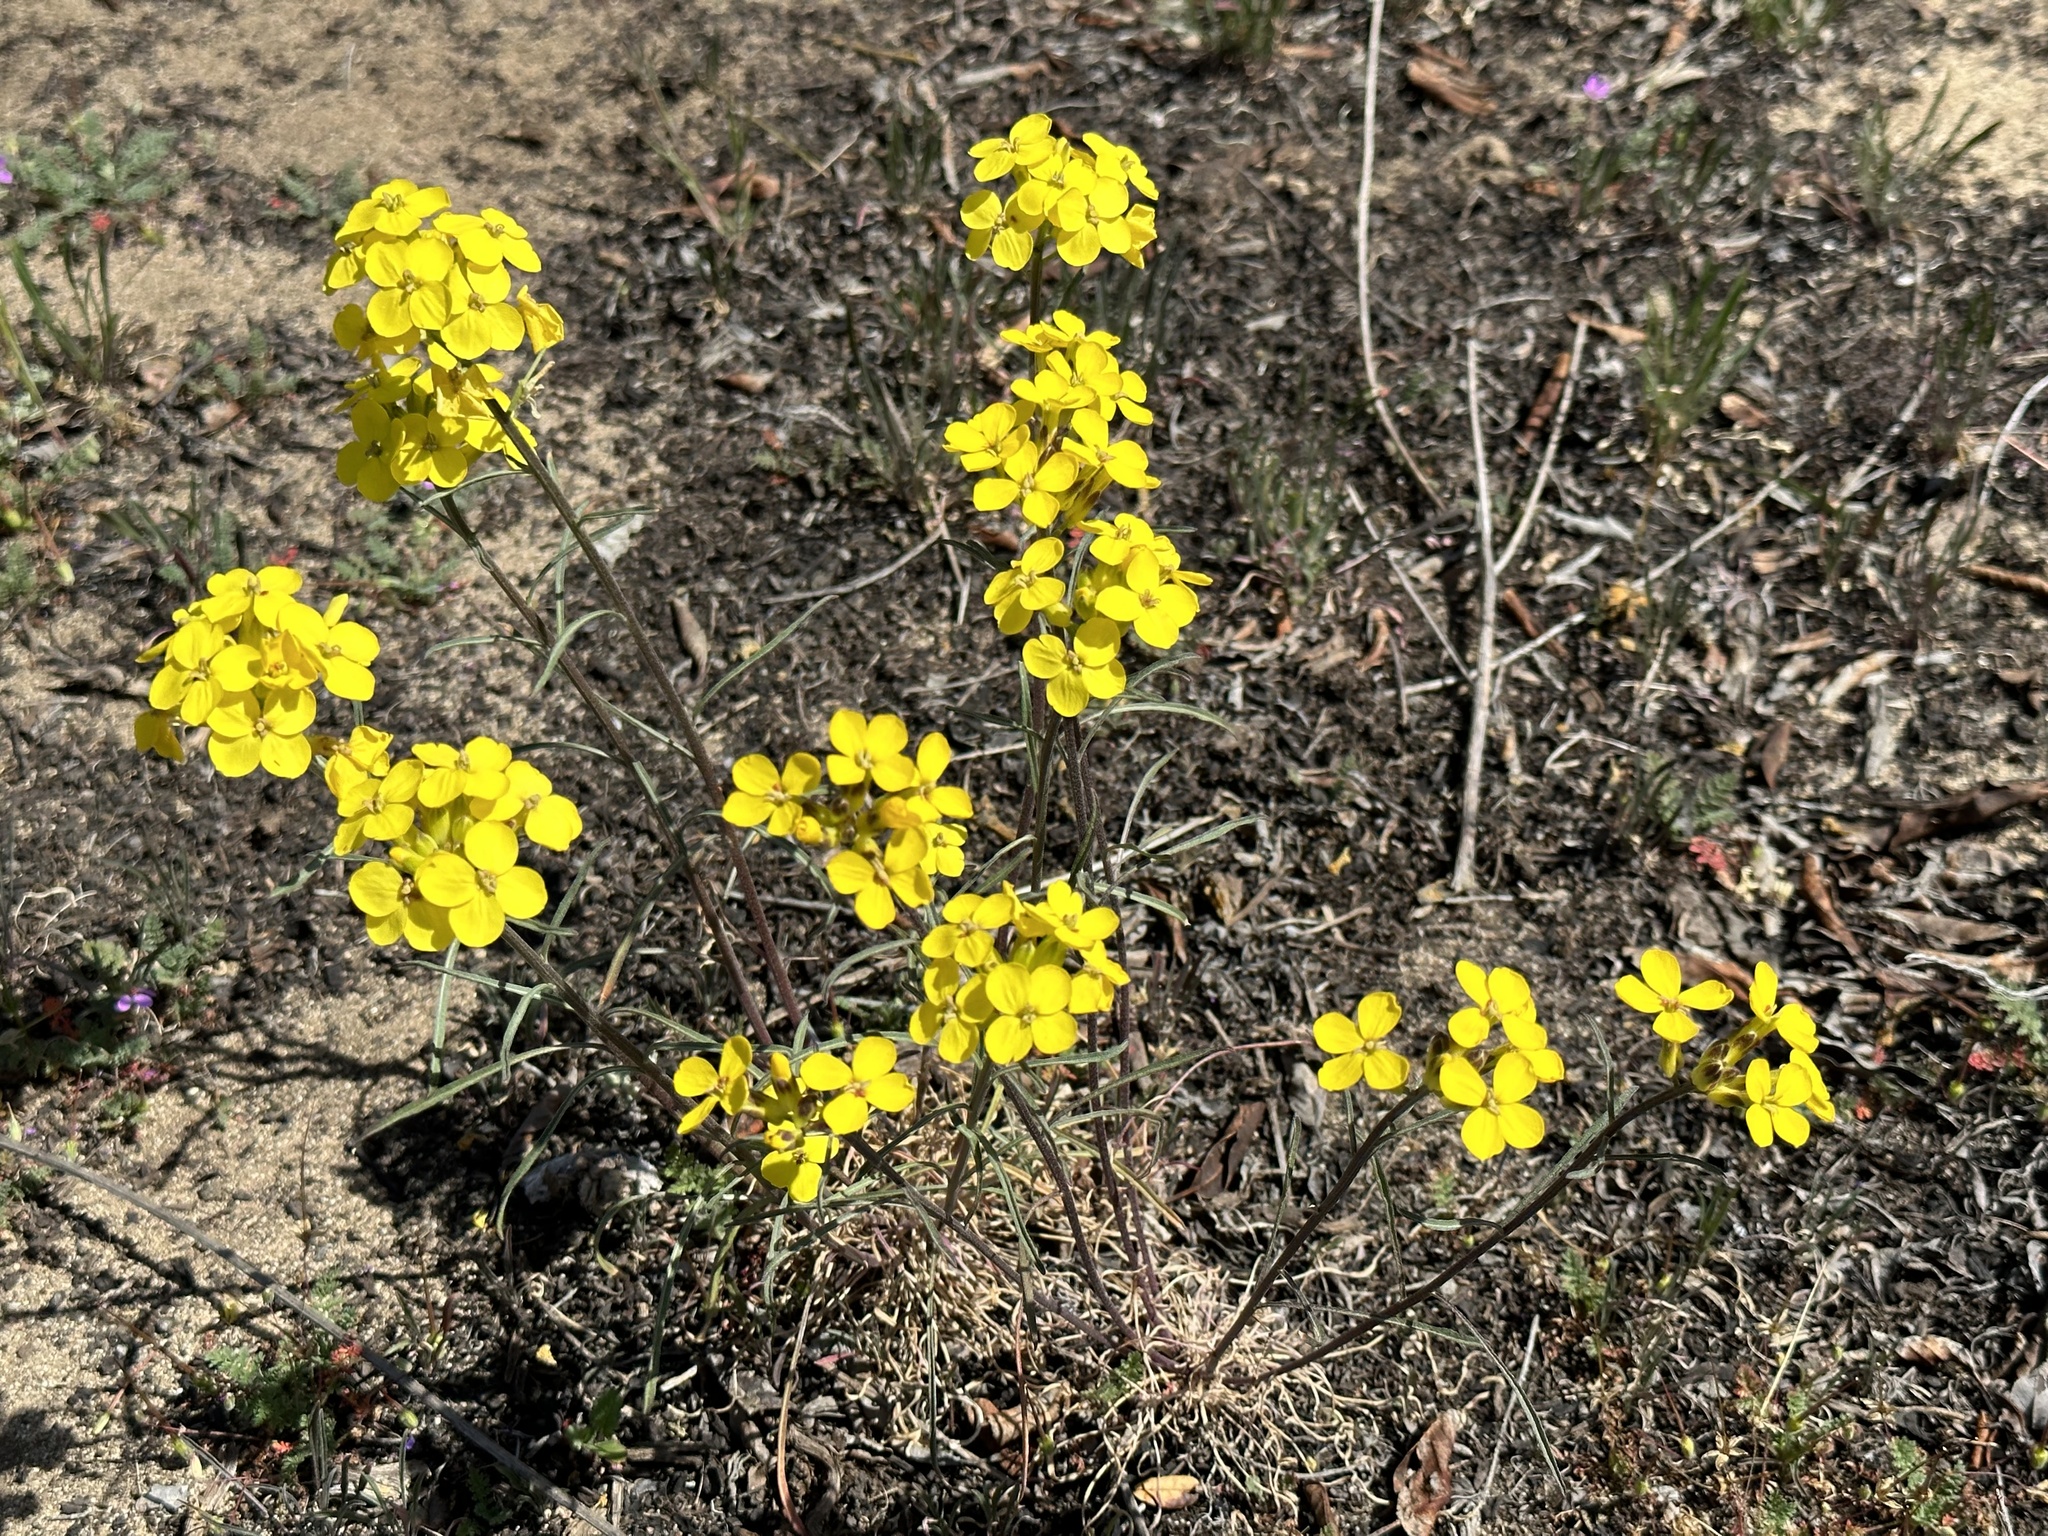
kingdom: Plantae
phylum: Tracheophyta
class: Magnoliopsida
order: Brassicales
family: Brassicaceae
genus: Erysimum
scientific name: Erysimum ammophilum
